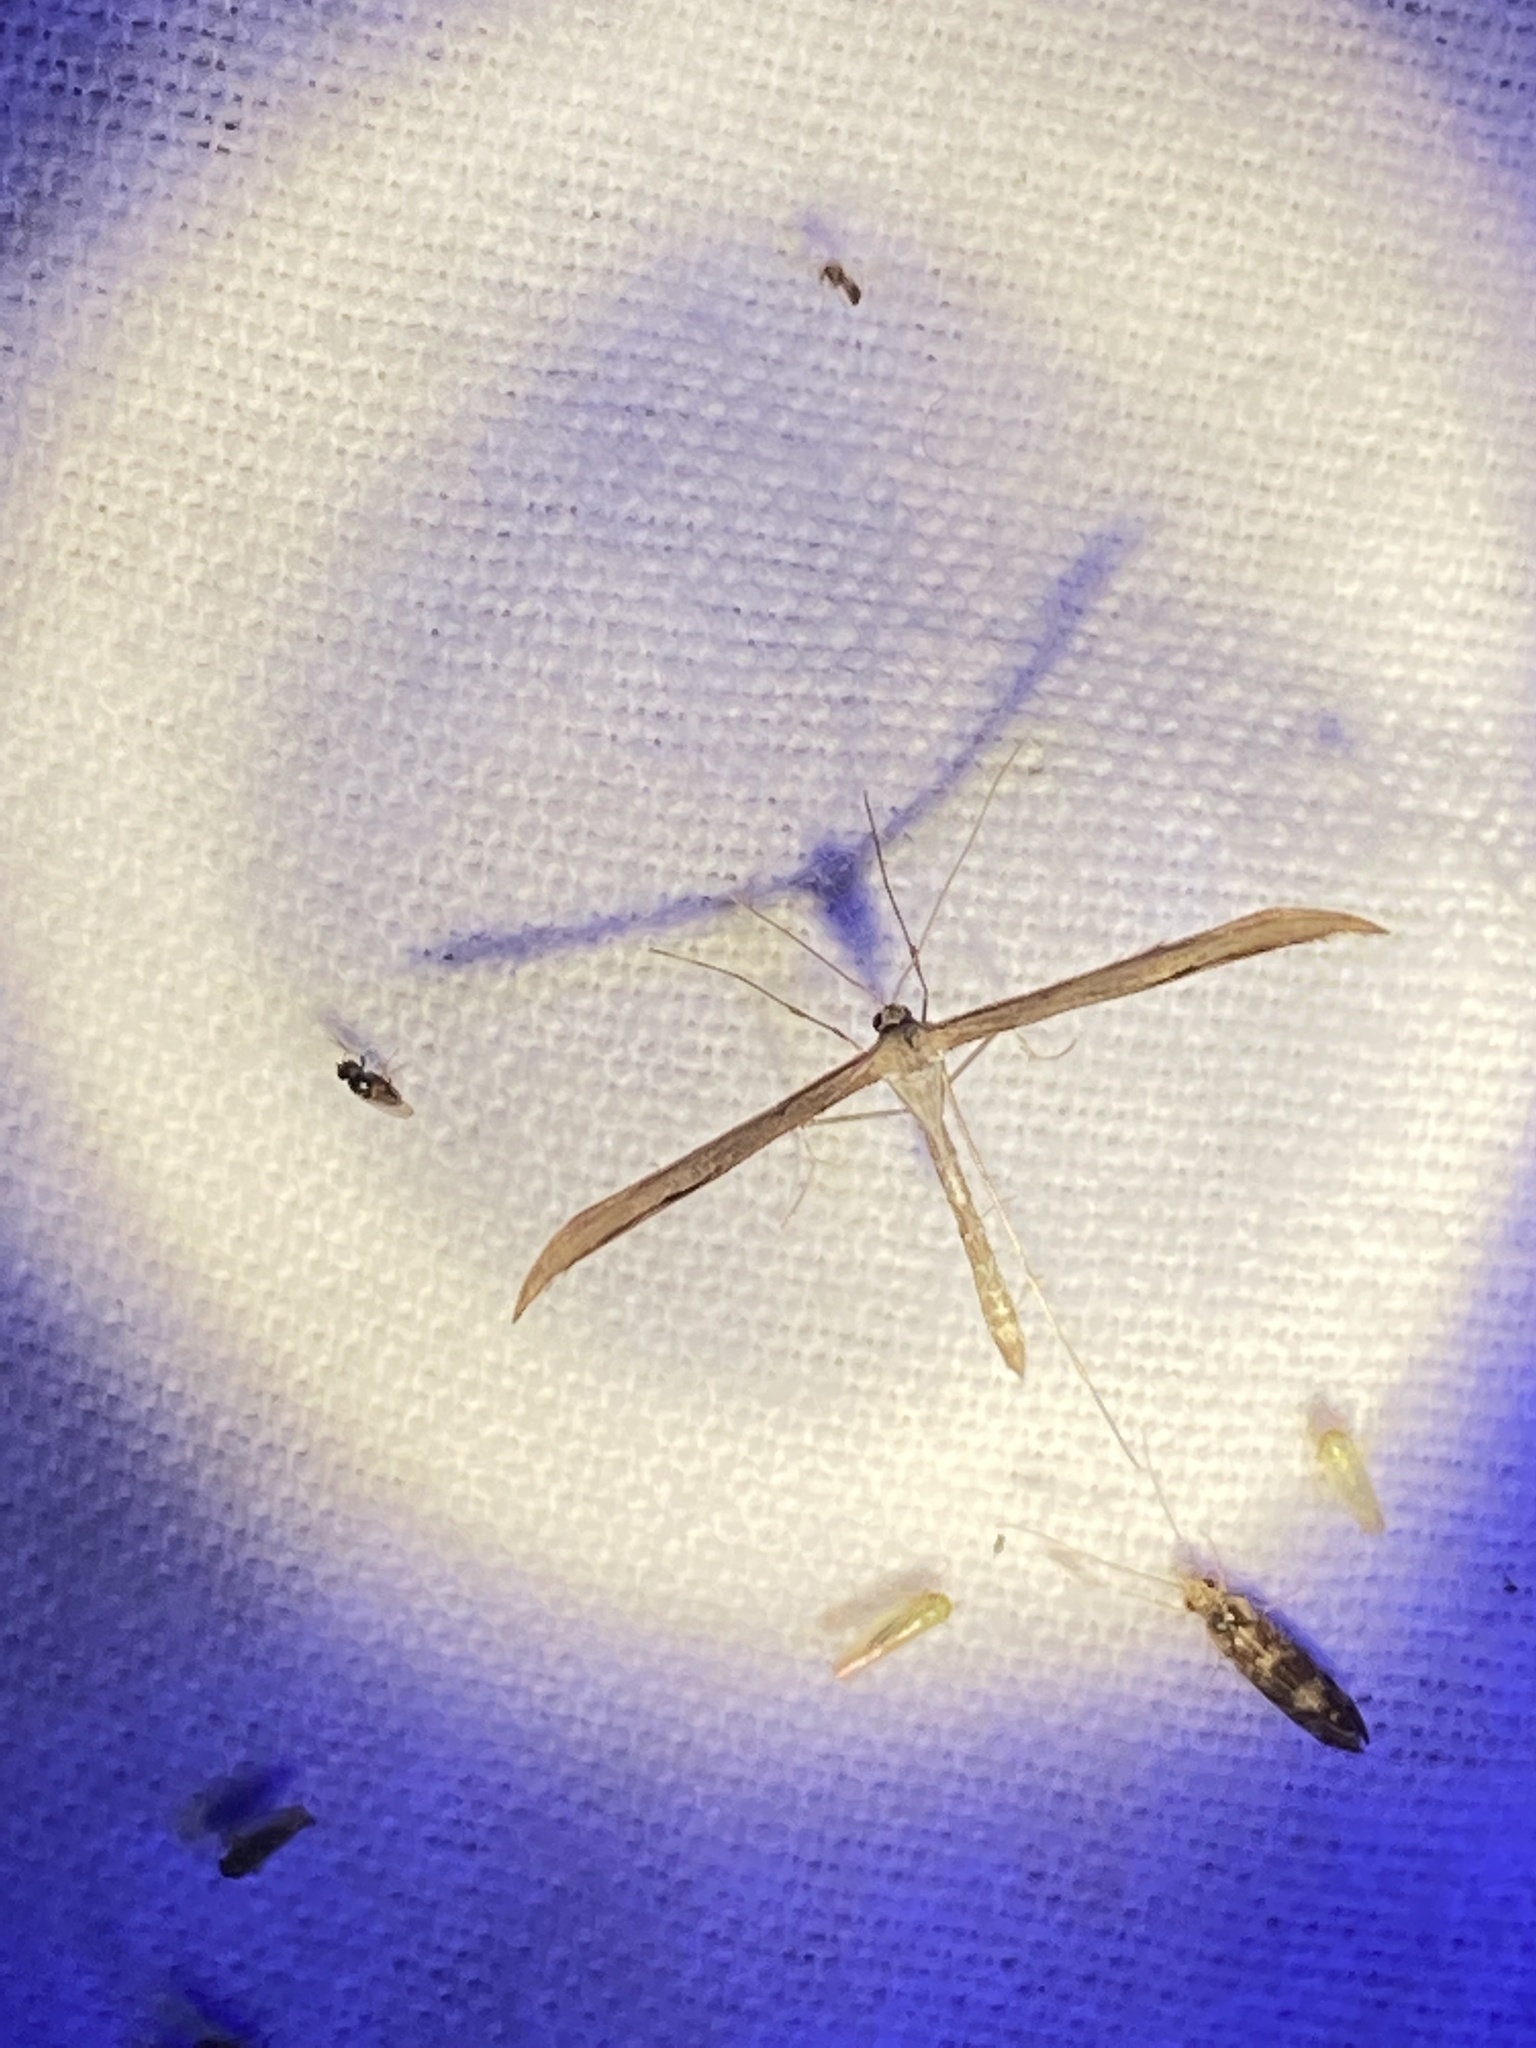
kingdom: Animalia
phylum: Arthropoda
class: Insecta
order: Lepidoptera
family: Pterophoridae
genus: Emmelina
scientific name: Emmelina monodactyla
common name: Common plume
